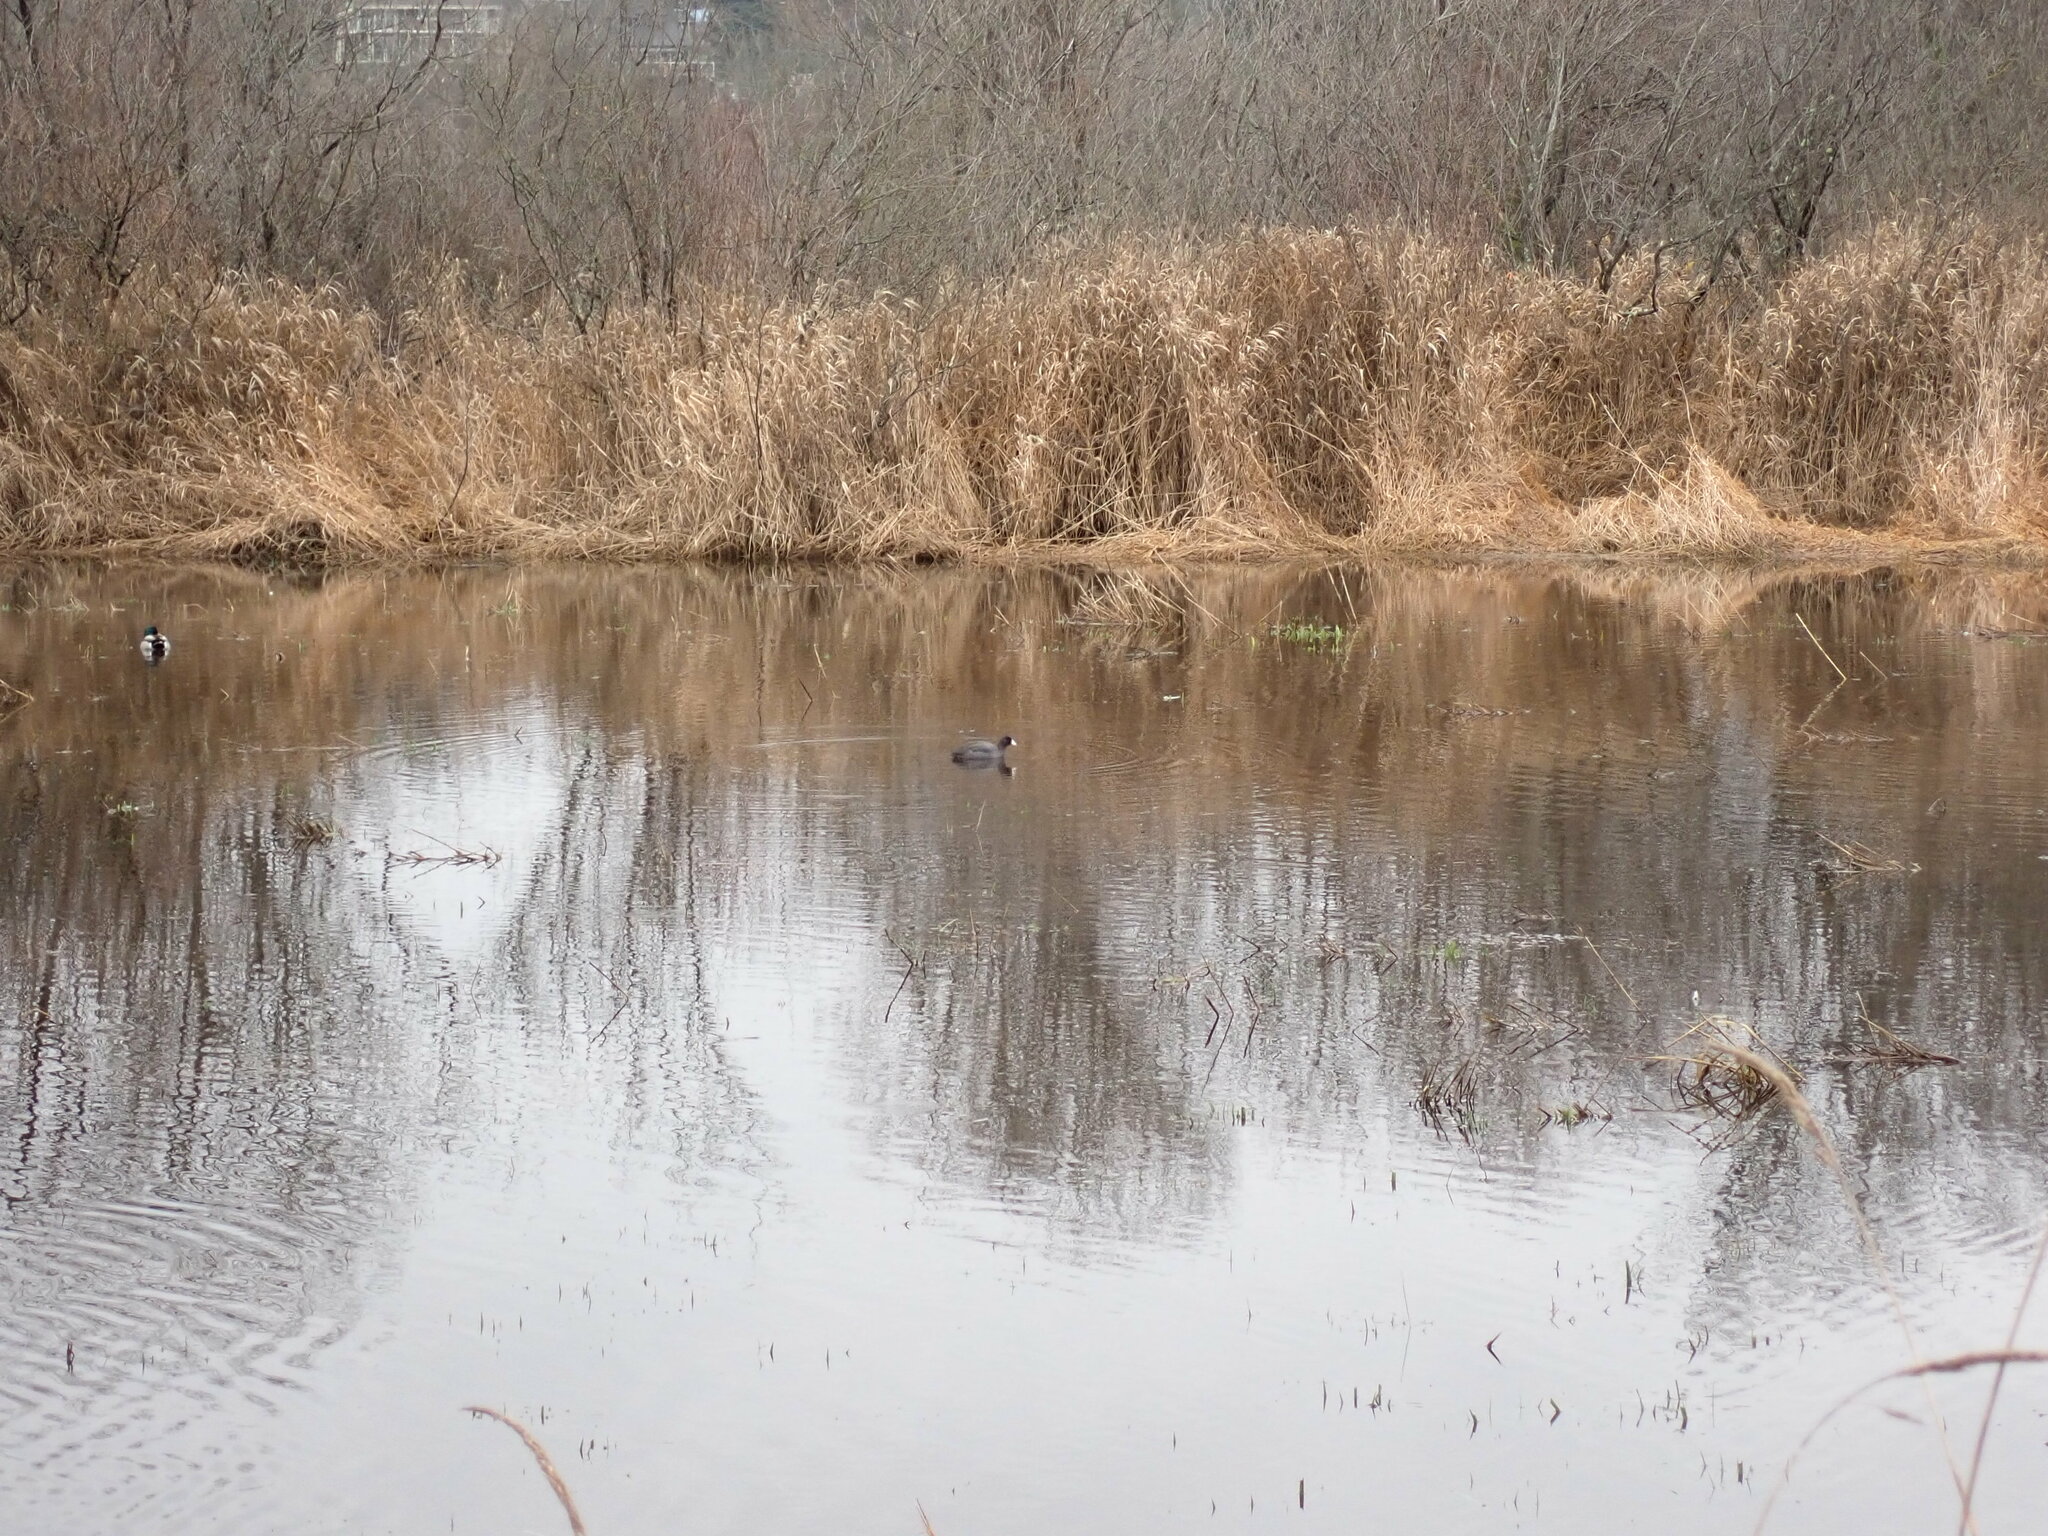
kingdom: Animalia
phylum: Chordata
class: Aves
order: Gruiformes
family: Rallidae
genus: Fulica
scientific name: Fulica americana
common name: American coot
